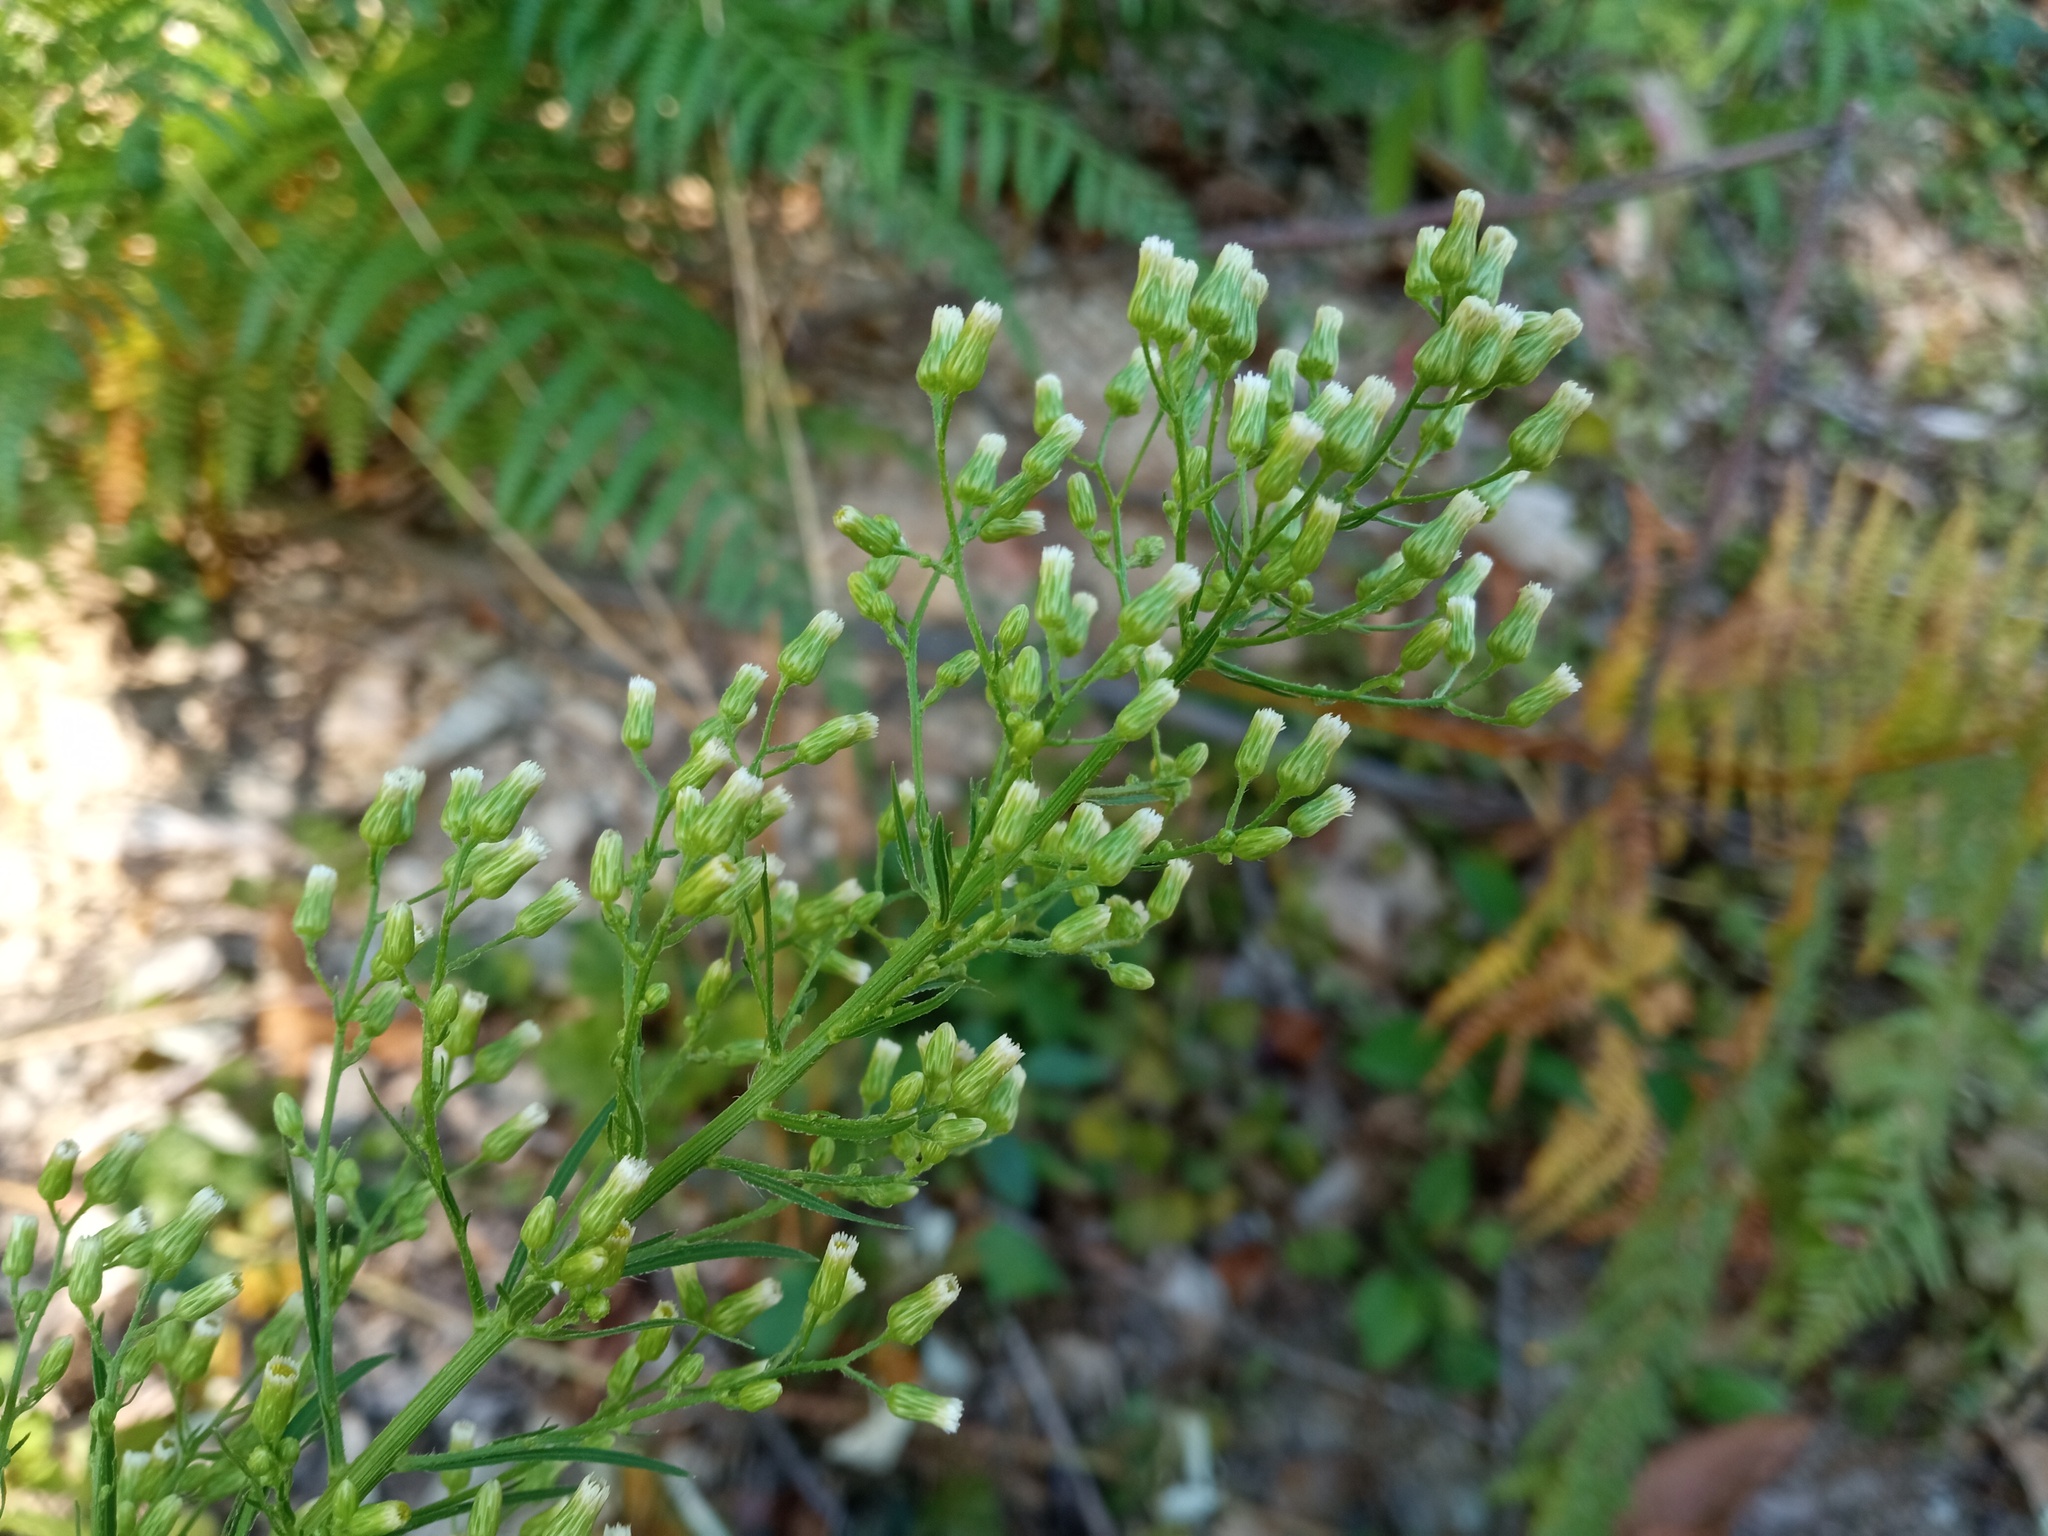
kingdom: Plantae
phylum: Tracheophyta
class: Magnoliopsida
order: Asterales
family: Asteraceae
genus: Erigeron
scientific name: Erigeron canadensis
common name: Canadian fleabane
